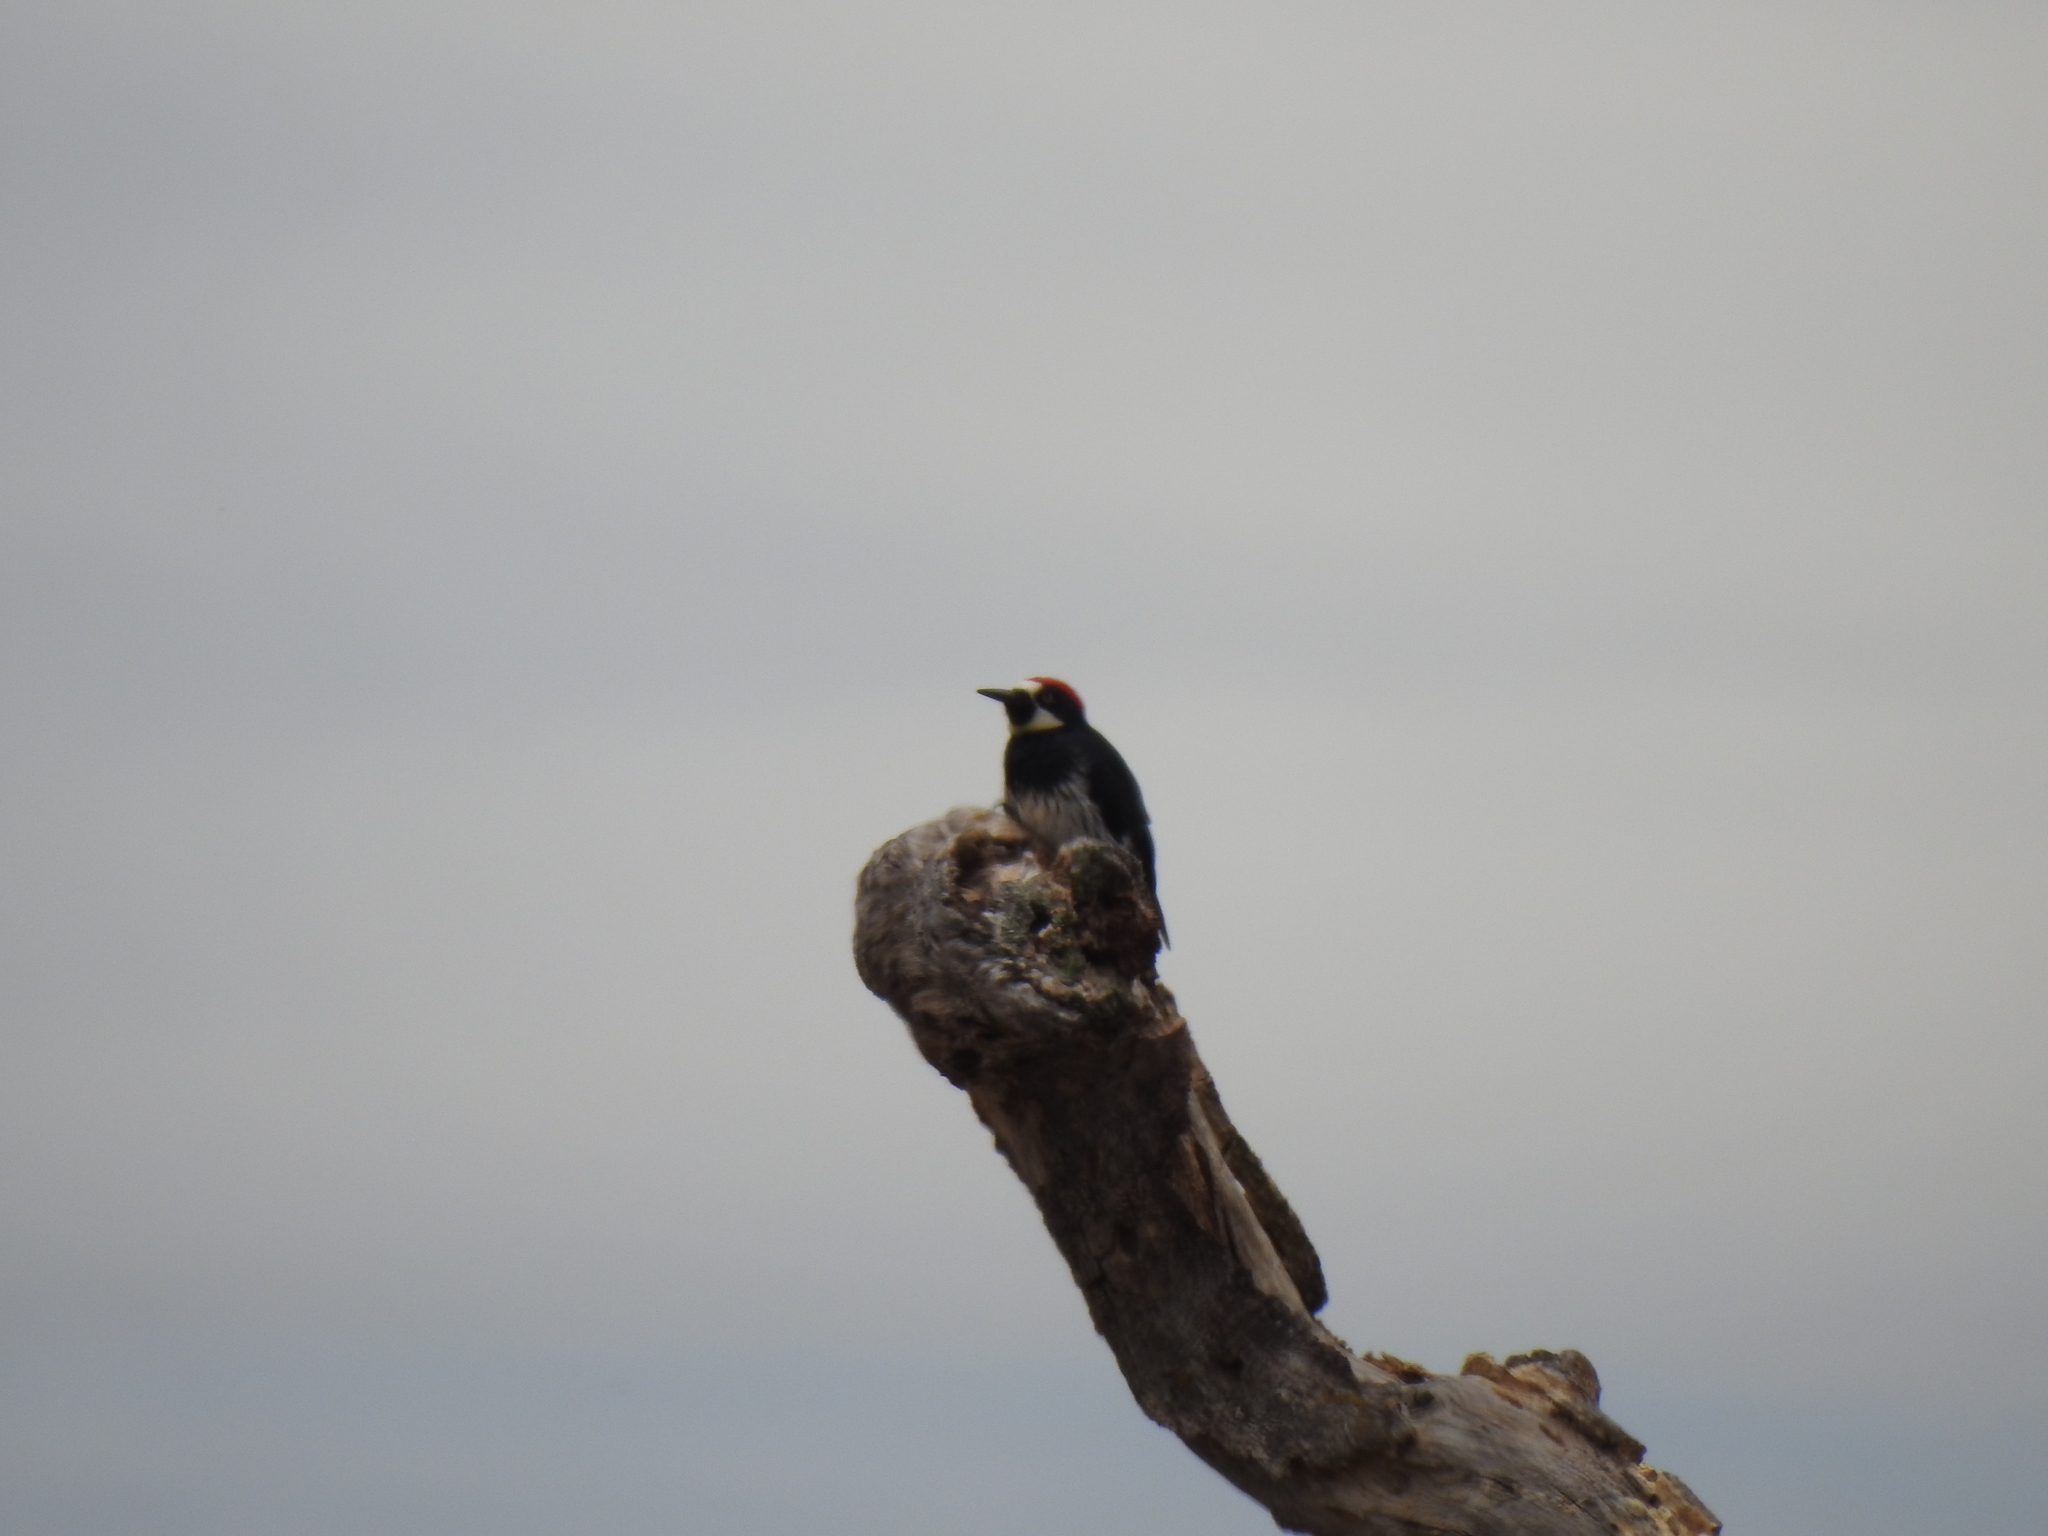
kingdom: Animalia
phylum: Chordata
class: Aves
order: Piciformes
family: Picidae
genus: Melanerpes
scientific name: Melanerpes formicivorus
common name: Acorn woodpecker
